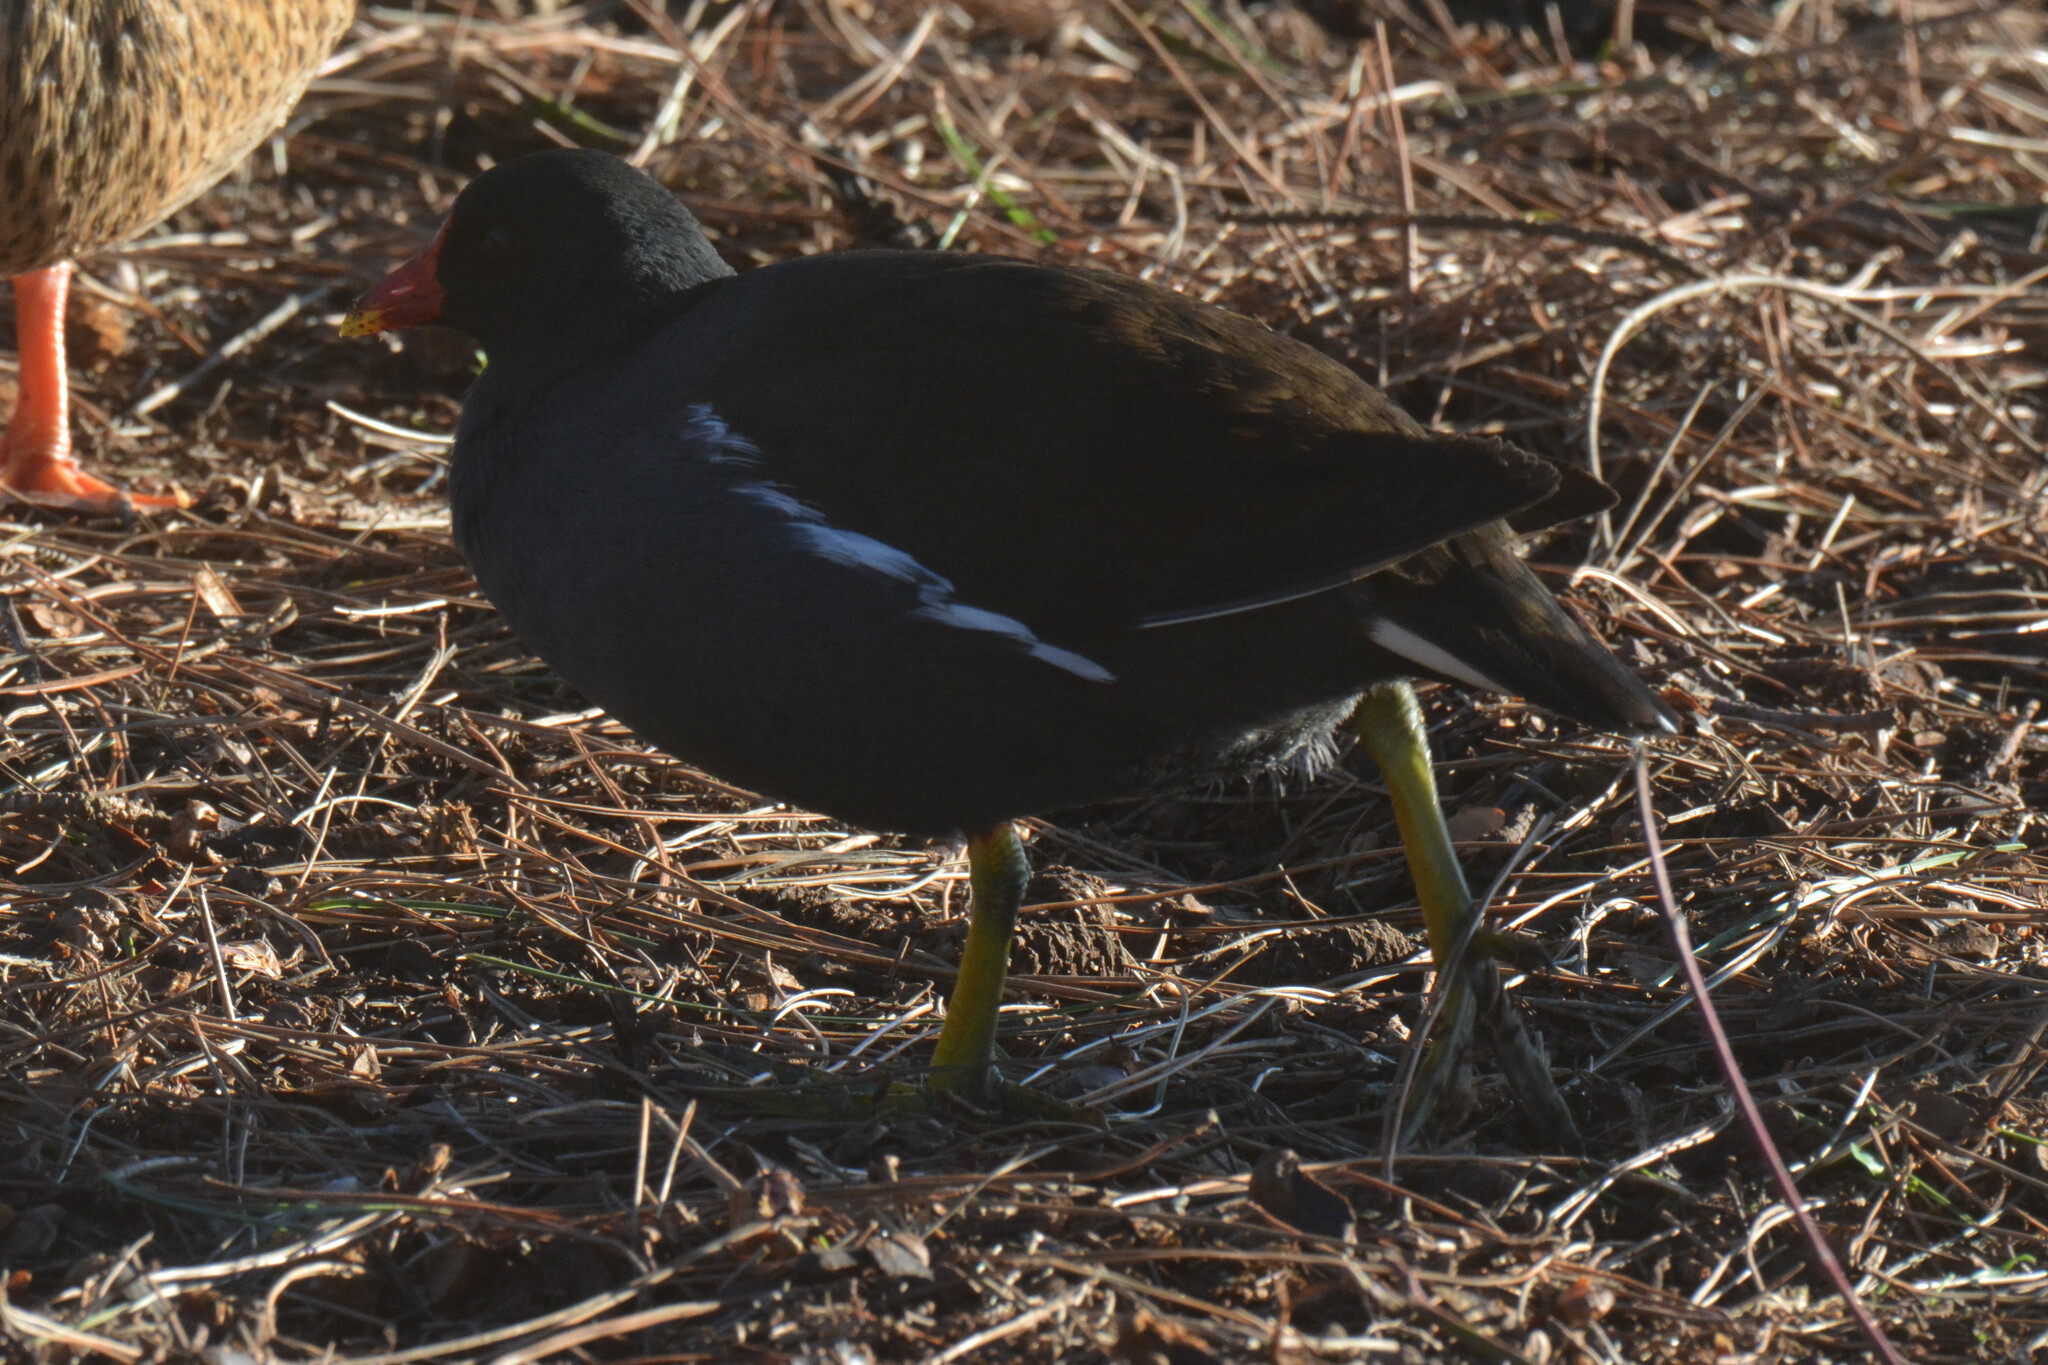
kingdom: Animalia
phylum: Chordata
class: Aves
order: Gruiformes
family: Rallidae
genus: Gallinula
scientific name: Gallinula chloropus
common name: Common moorhen
